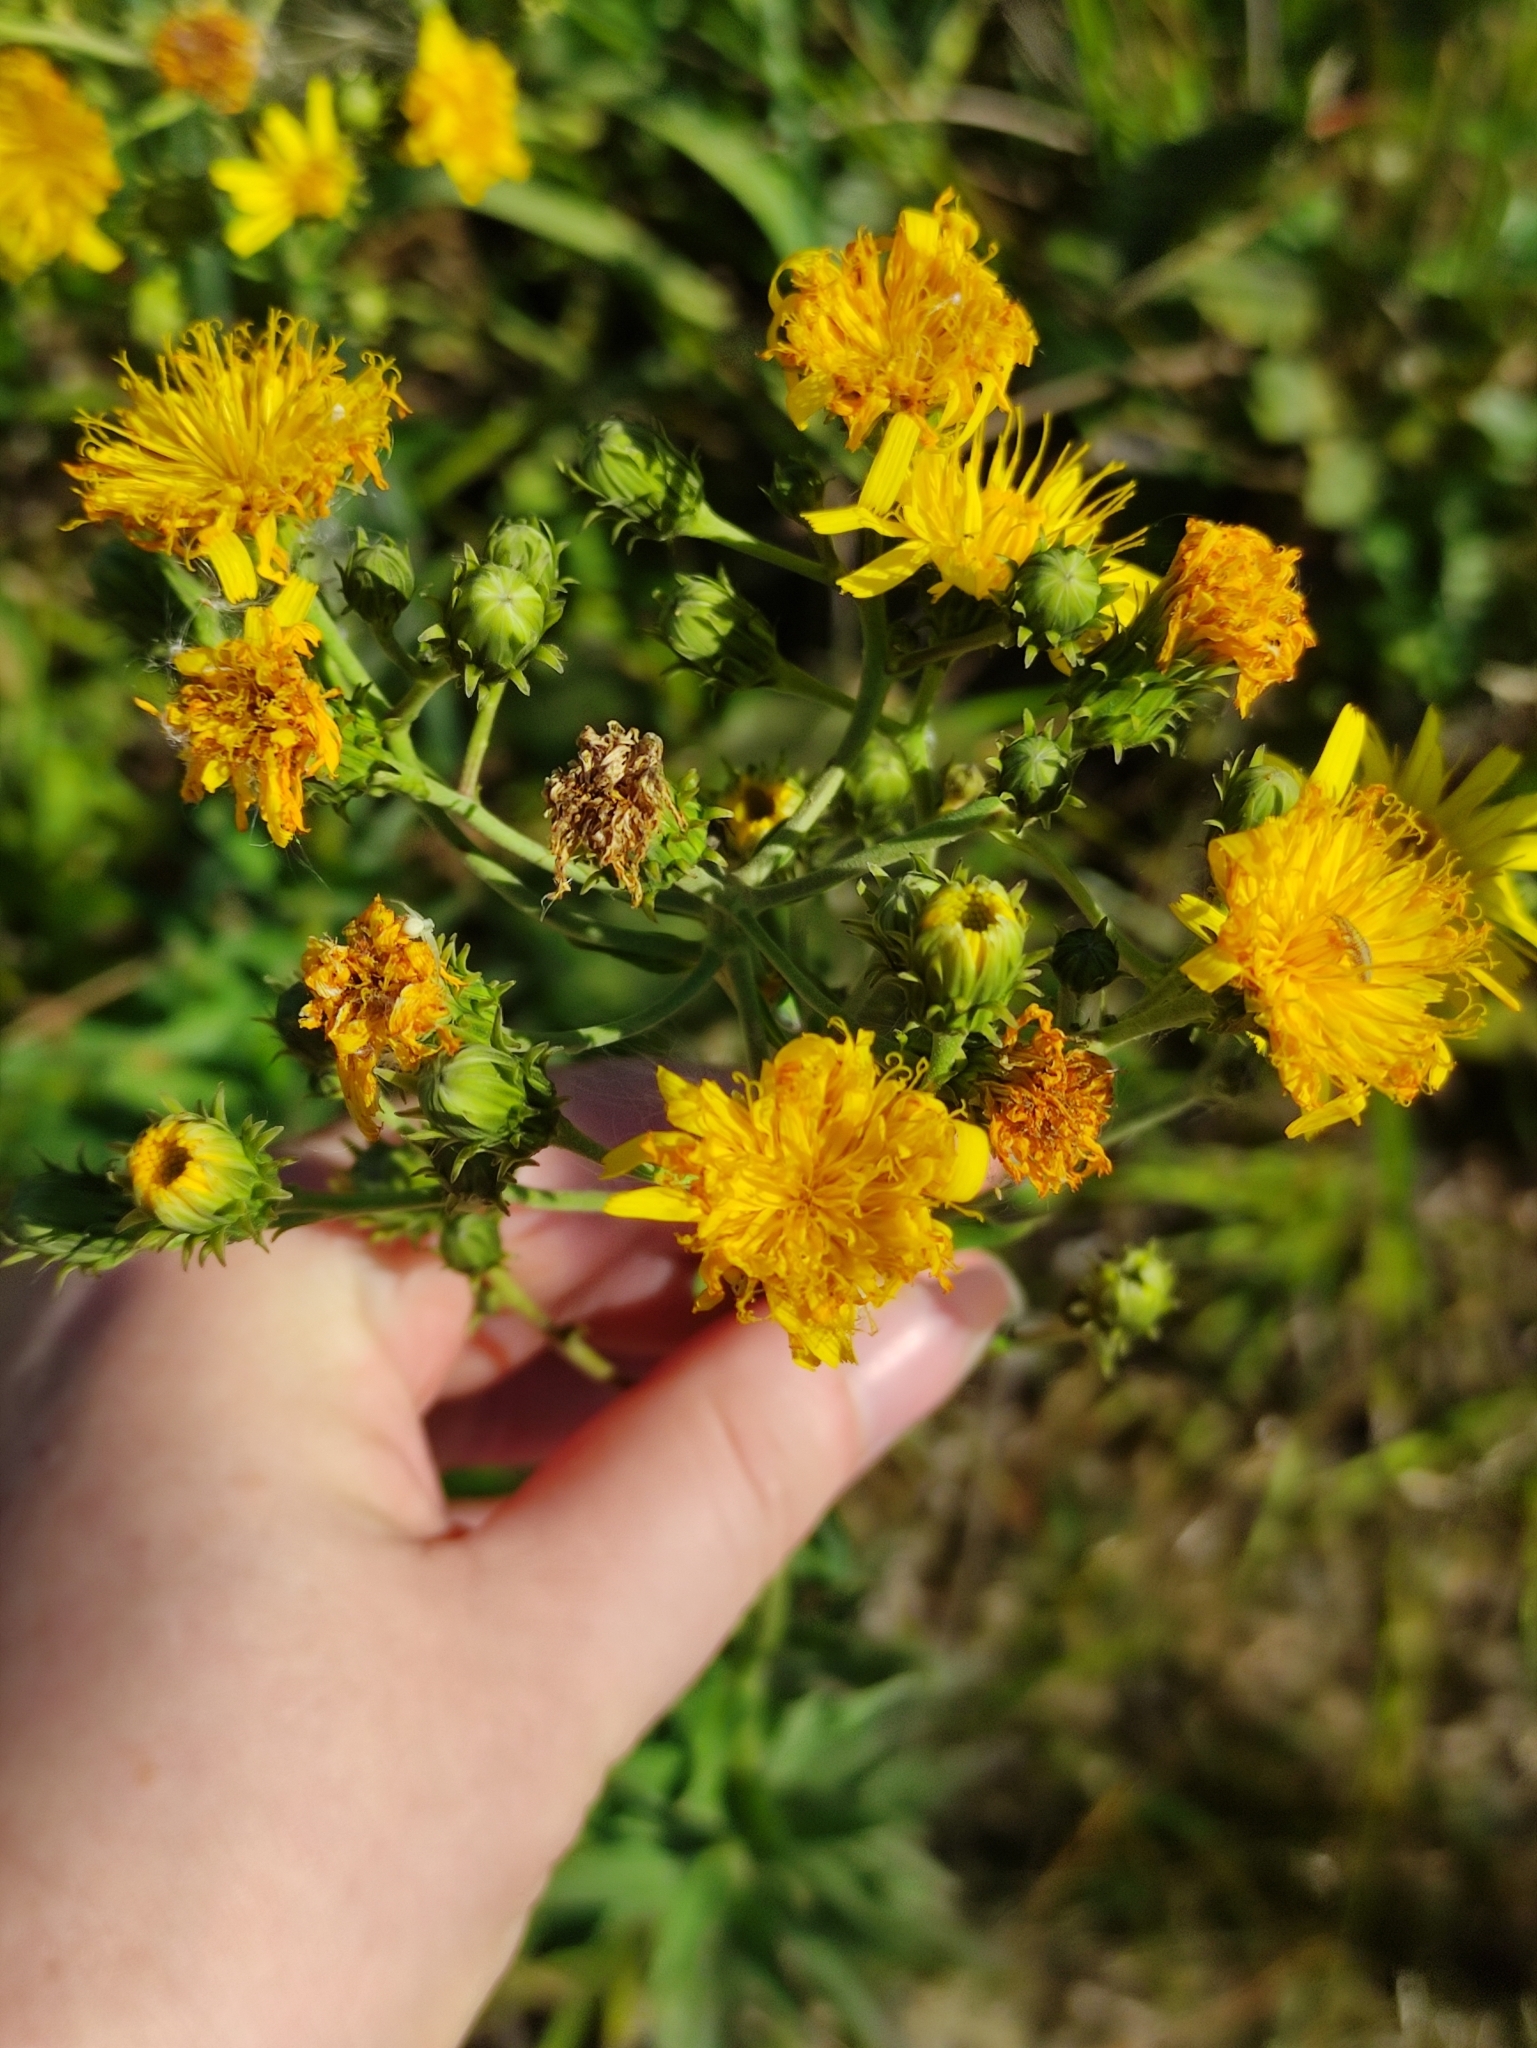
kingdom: Plantae
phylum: Tracheophyta
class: Magnoliopsida
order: Asterales
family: Asteraceae
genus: Hieracium
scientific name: Hieracium umbellatum
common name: Northern hawkweed
